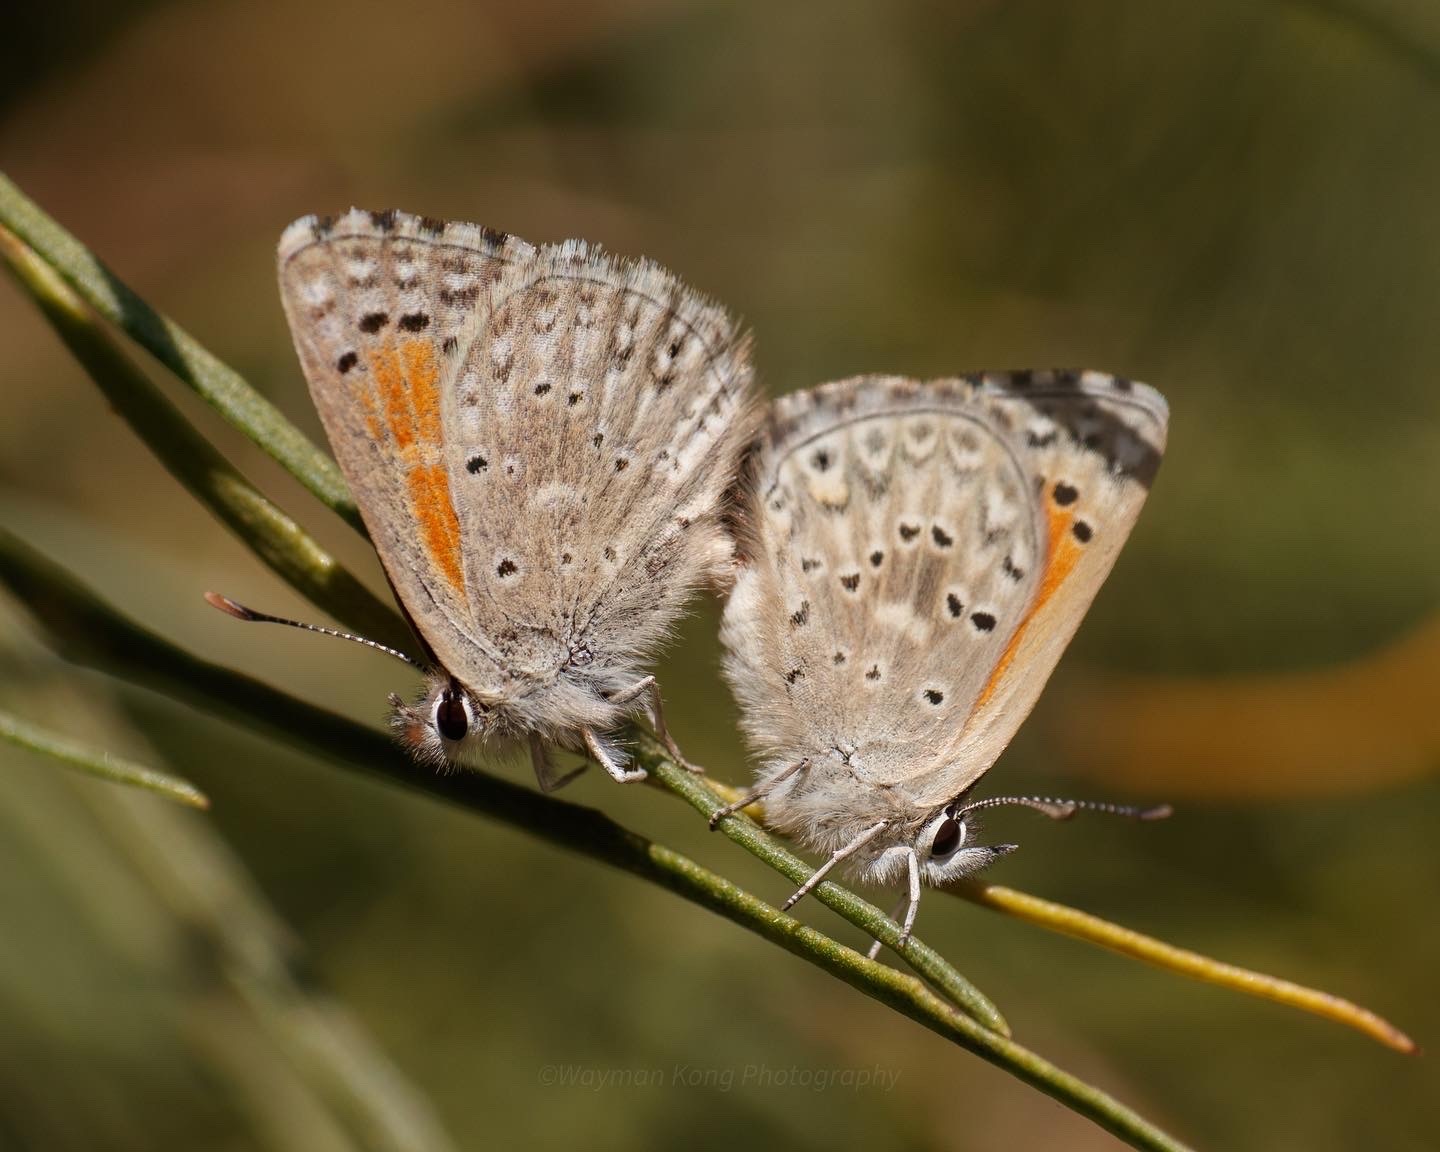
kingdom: Animalia
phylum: Arthropoda
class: Insecta
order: Lepidoptera
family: Lycaenidae
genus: Pseudolucia
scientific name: Pseudolucia chilensis
